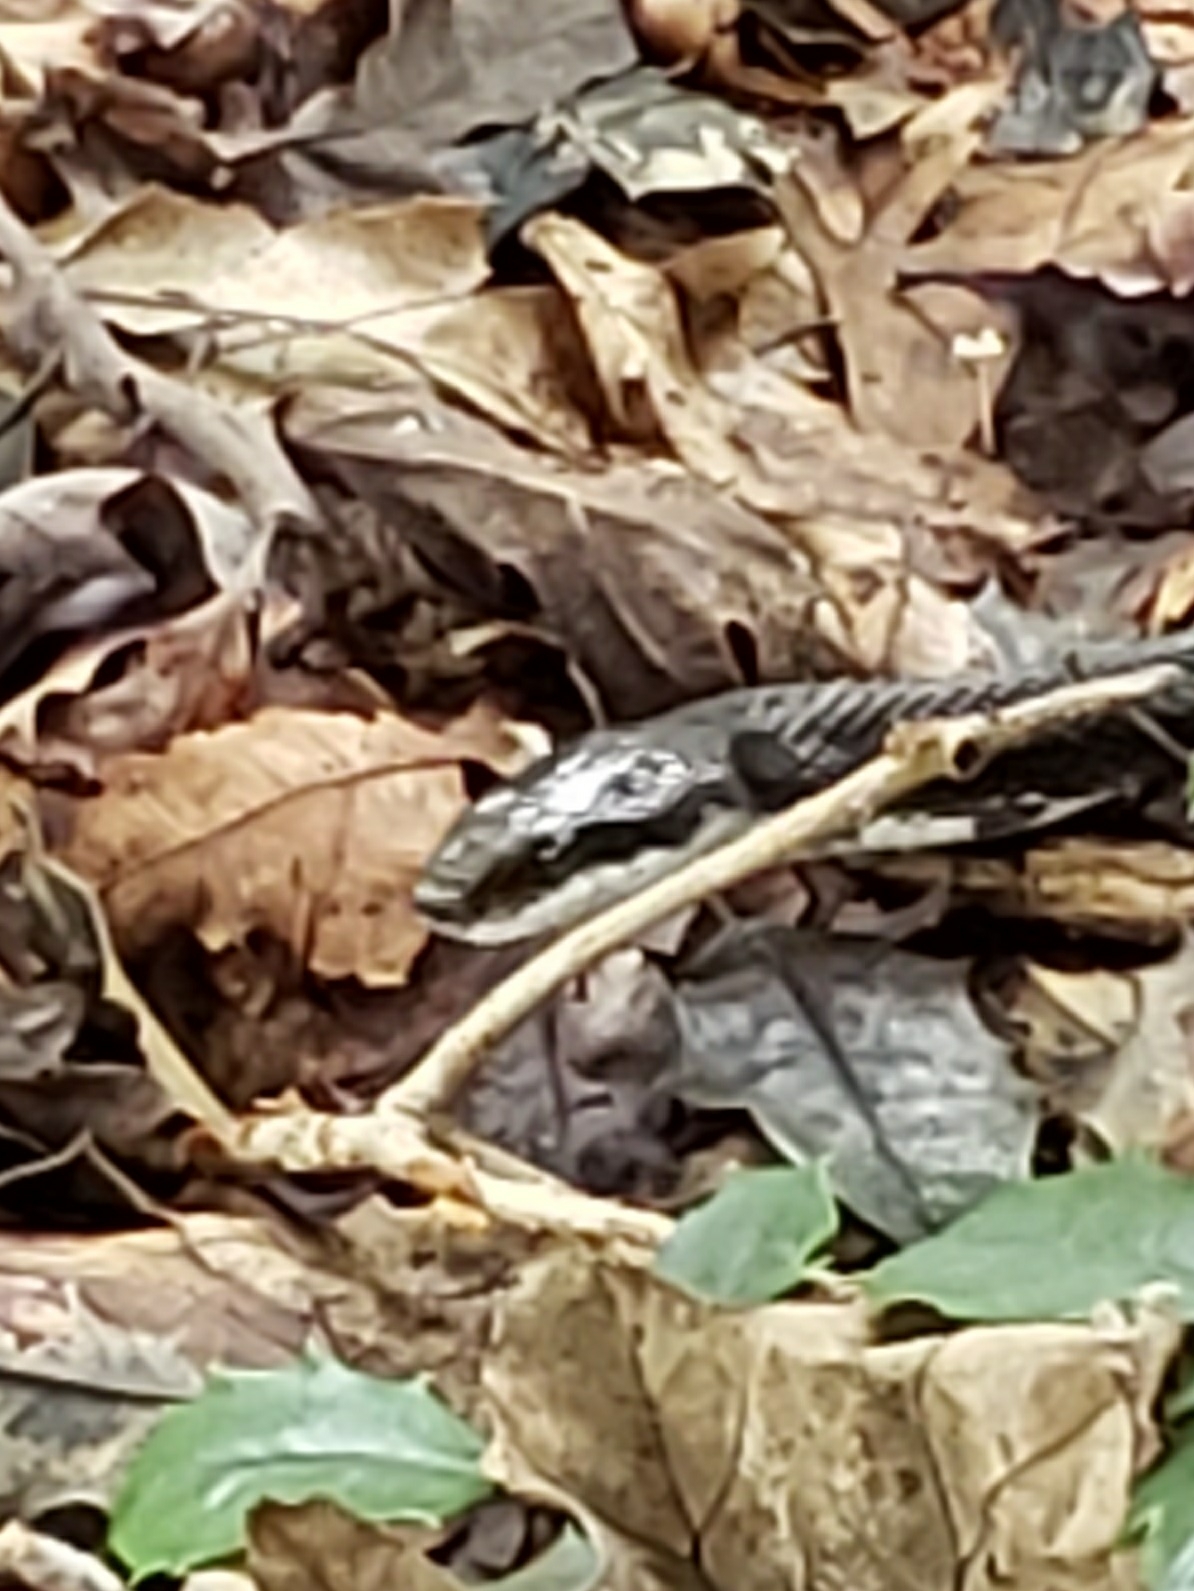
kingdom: Animalia
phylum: Chordata
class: Squamata
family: Colubridae
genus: Pantherophis
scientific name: Pantherophis alleghaniensis
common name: Eastern rat snake
